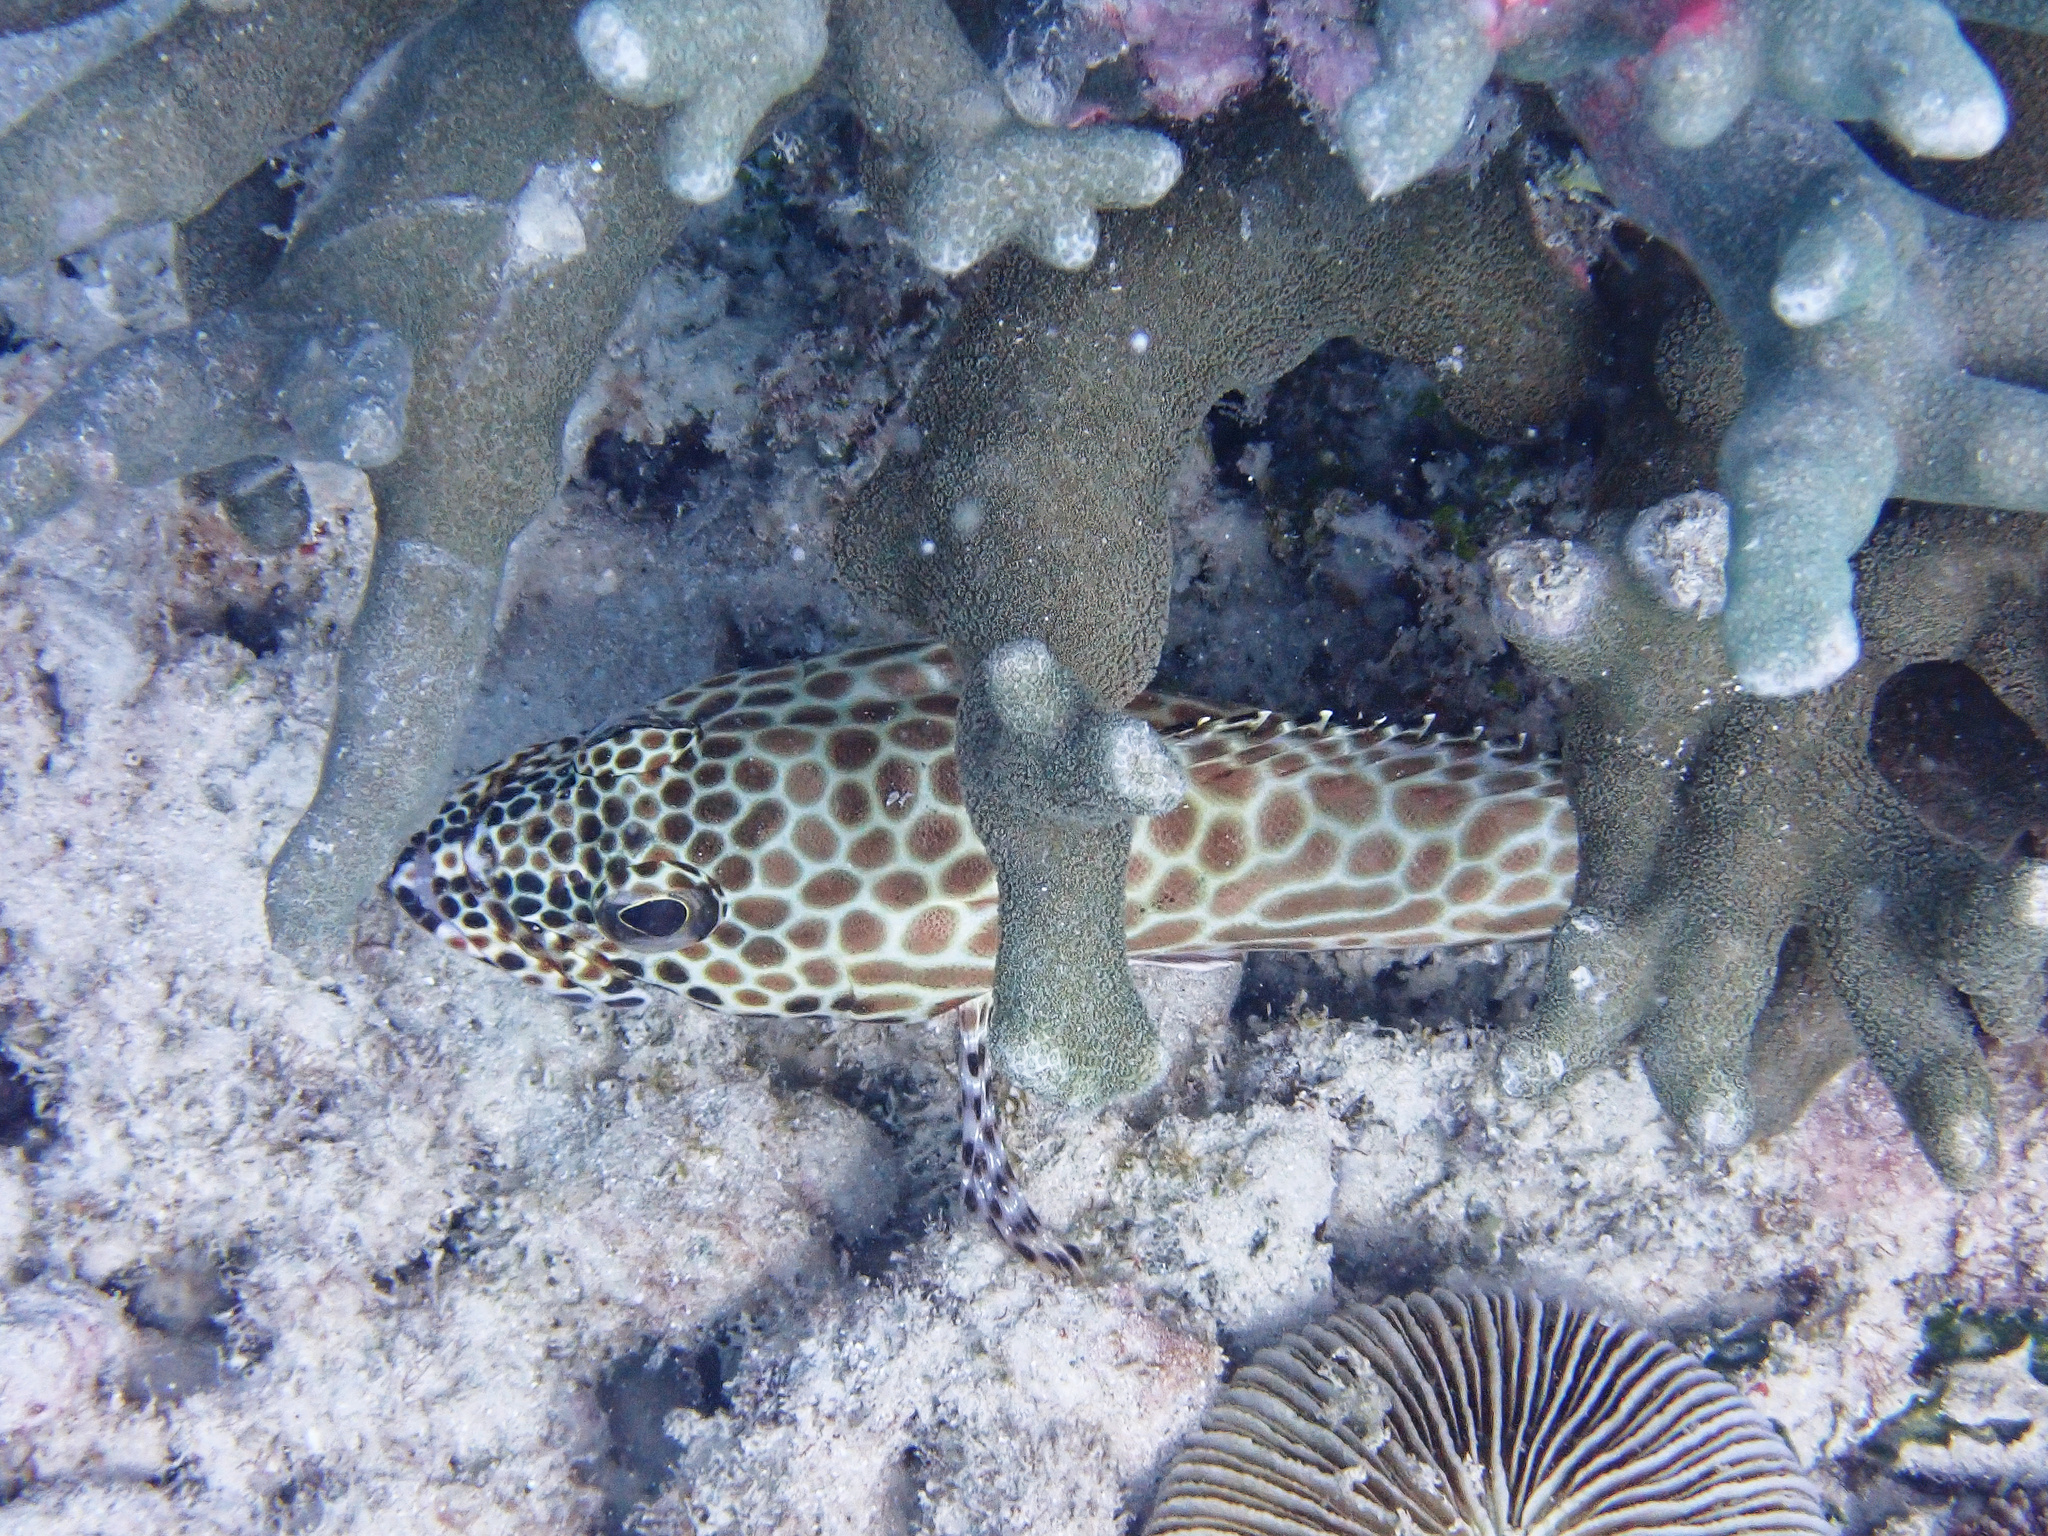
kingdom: Animalia
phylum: Chordata
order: Perciformes
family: Serranidae
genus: Epinephelus
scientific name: Epinephelus merra
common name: Honeycomb grouper
